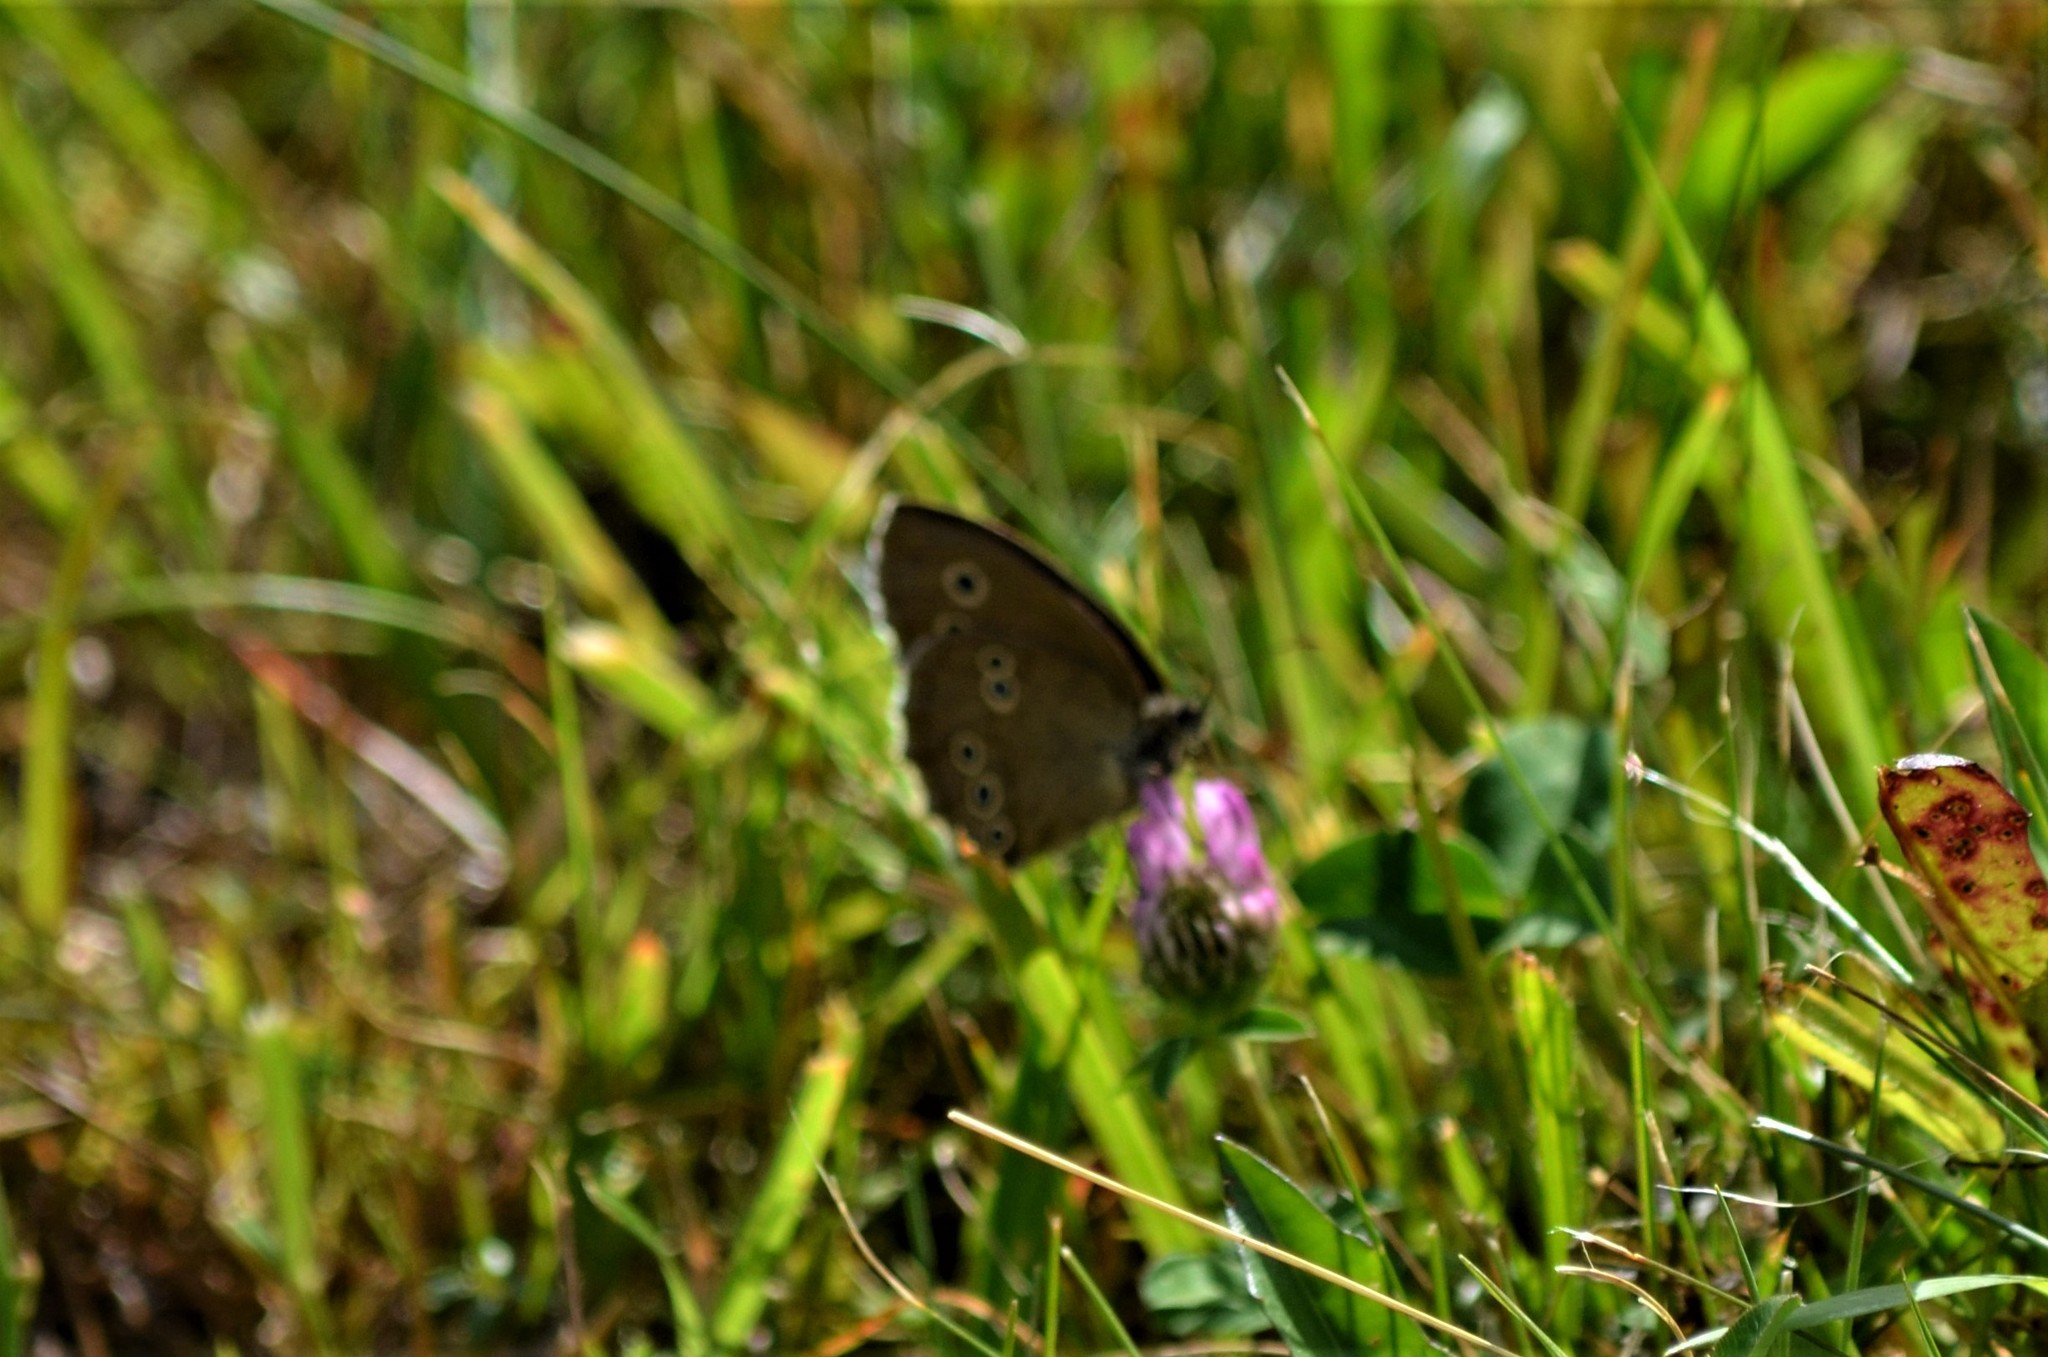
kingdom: Animalia
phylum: Arthropoda
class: Insecta
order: Lepidoptera
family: Nymphalidae
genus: Aphantopus
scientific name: Aphantopus hyperantus
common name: Ringlet
